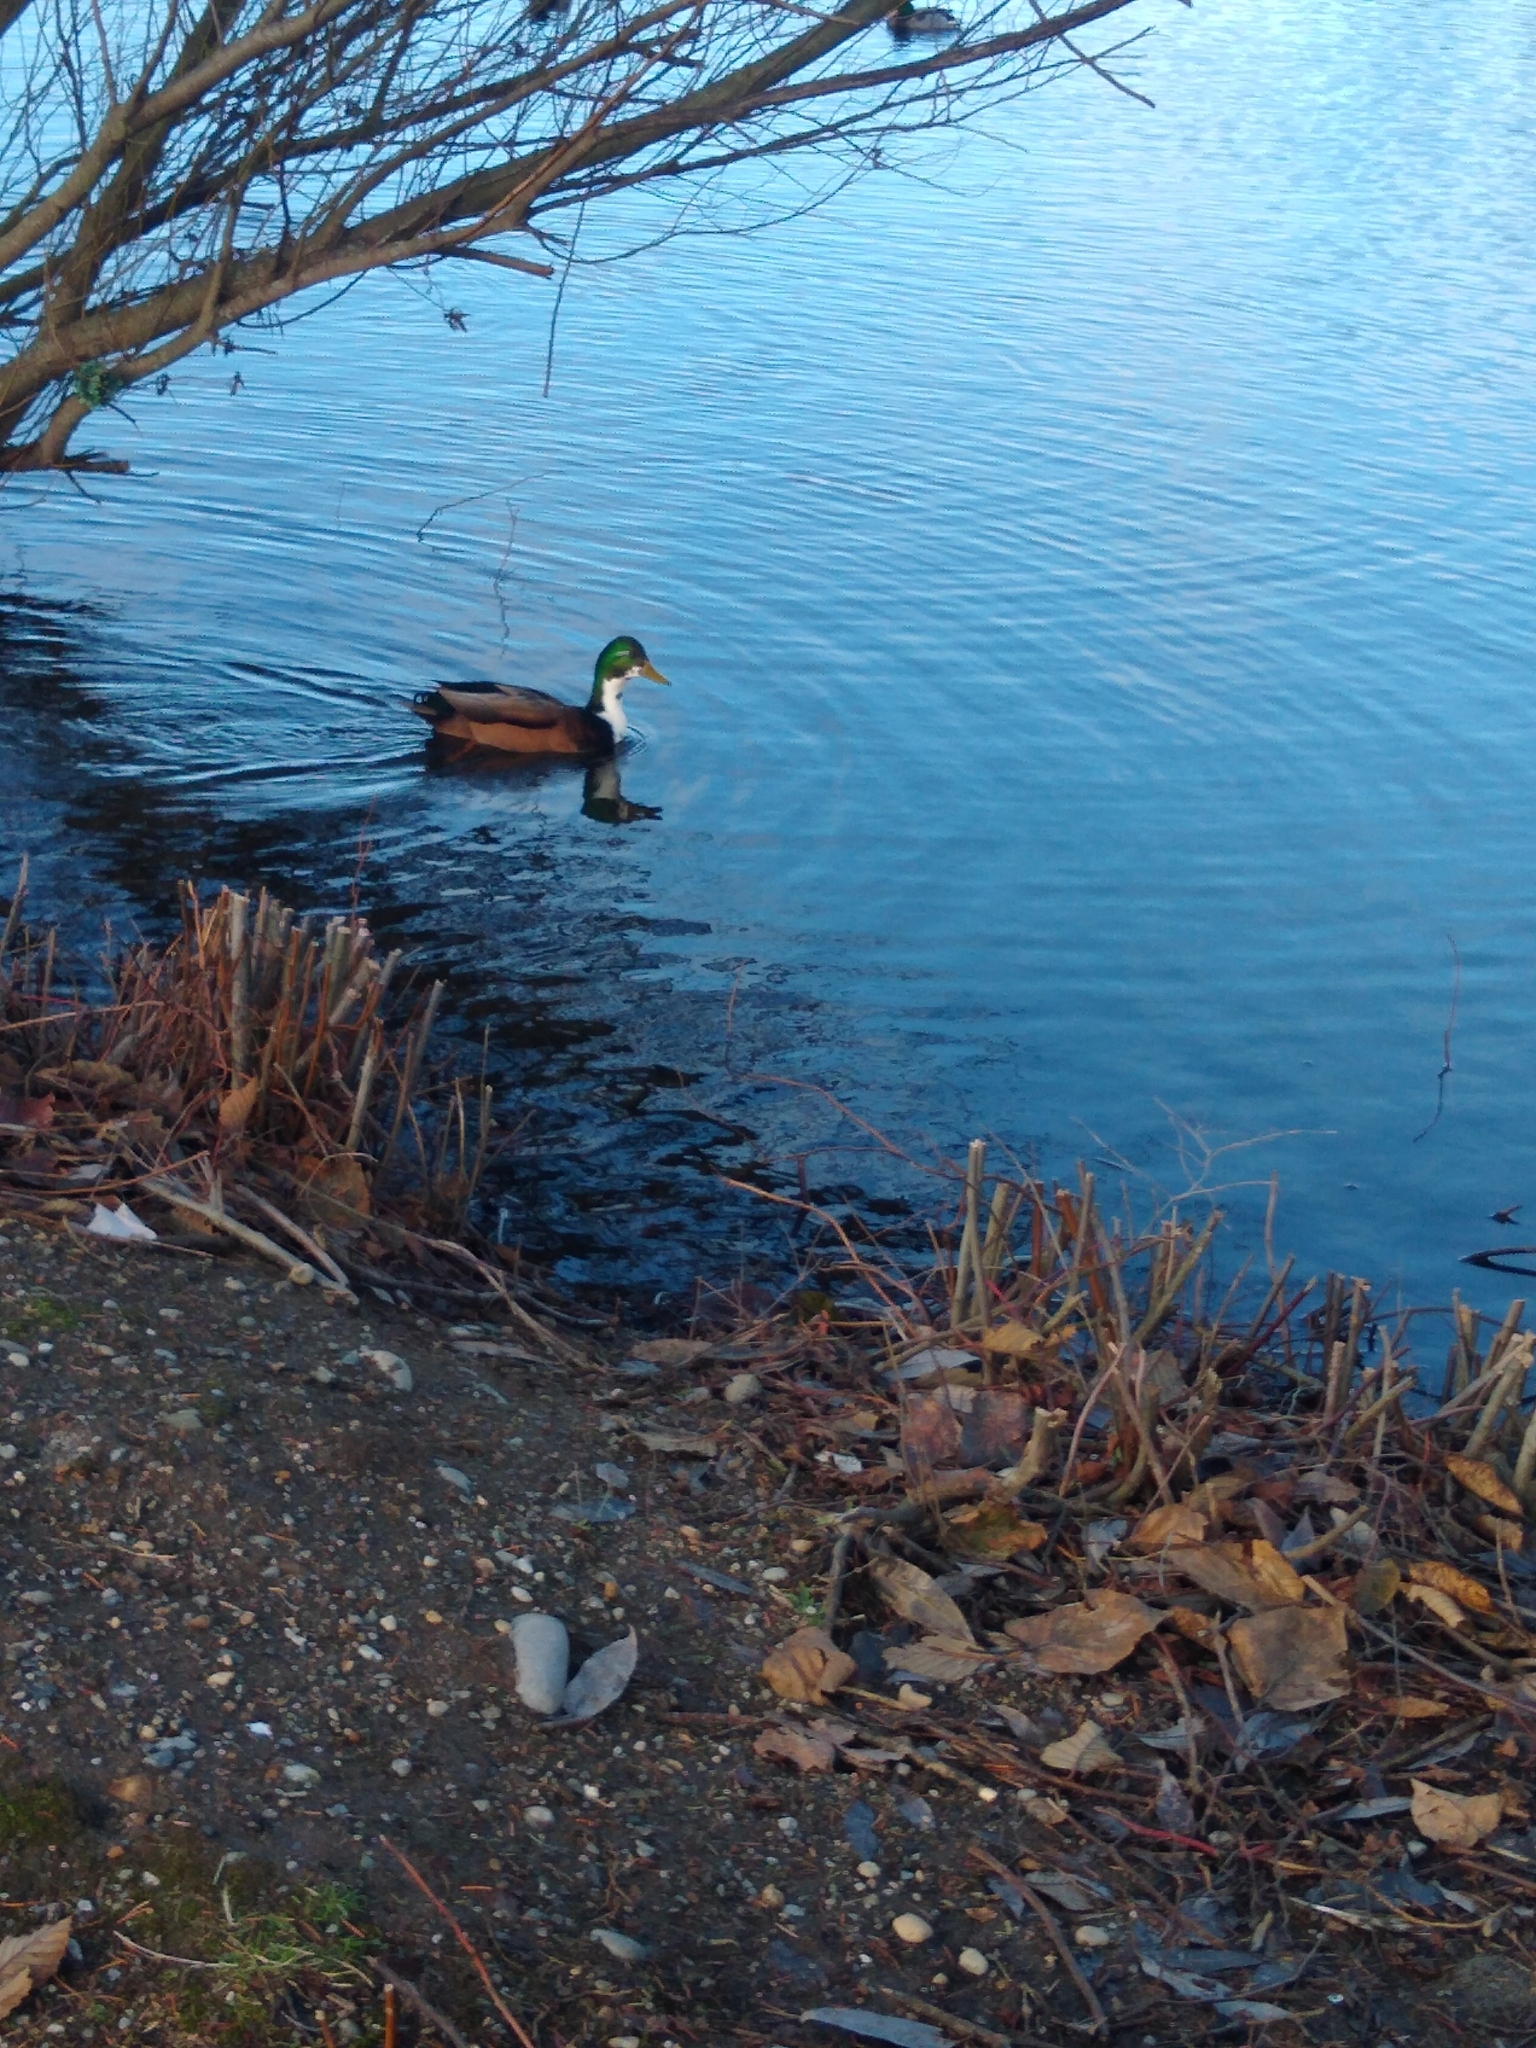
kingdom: Animalia
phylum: Chordata
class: Aves
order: Anseriformes
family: Anatidae
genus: Anas
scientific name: Anas platyrhynchos
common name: Mallard
